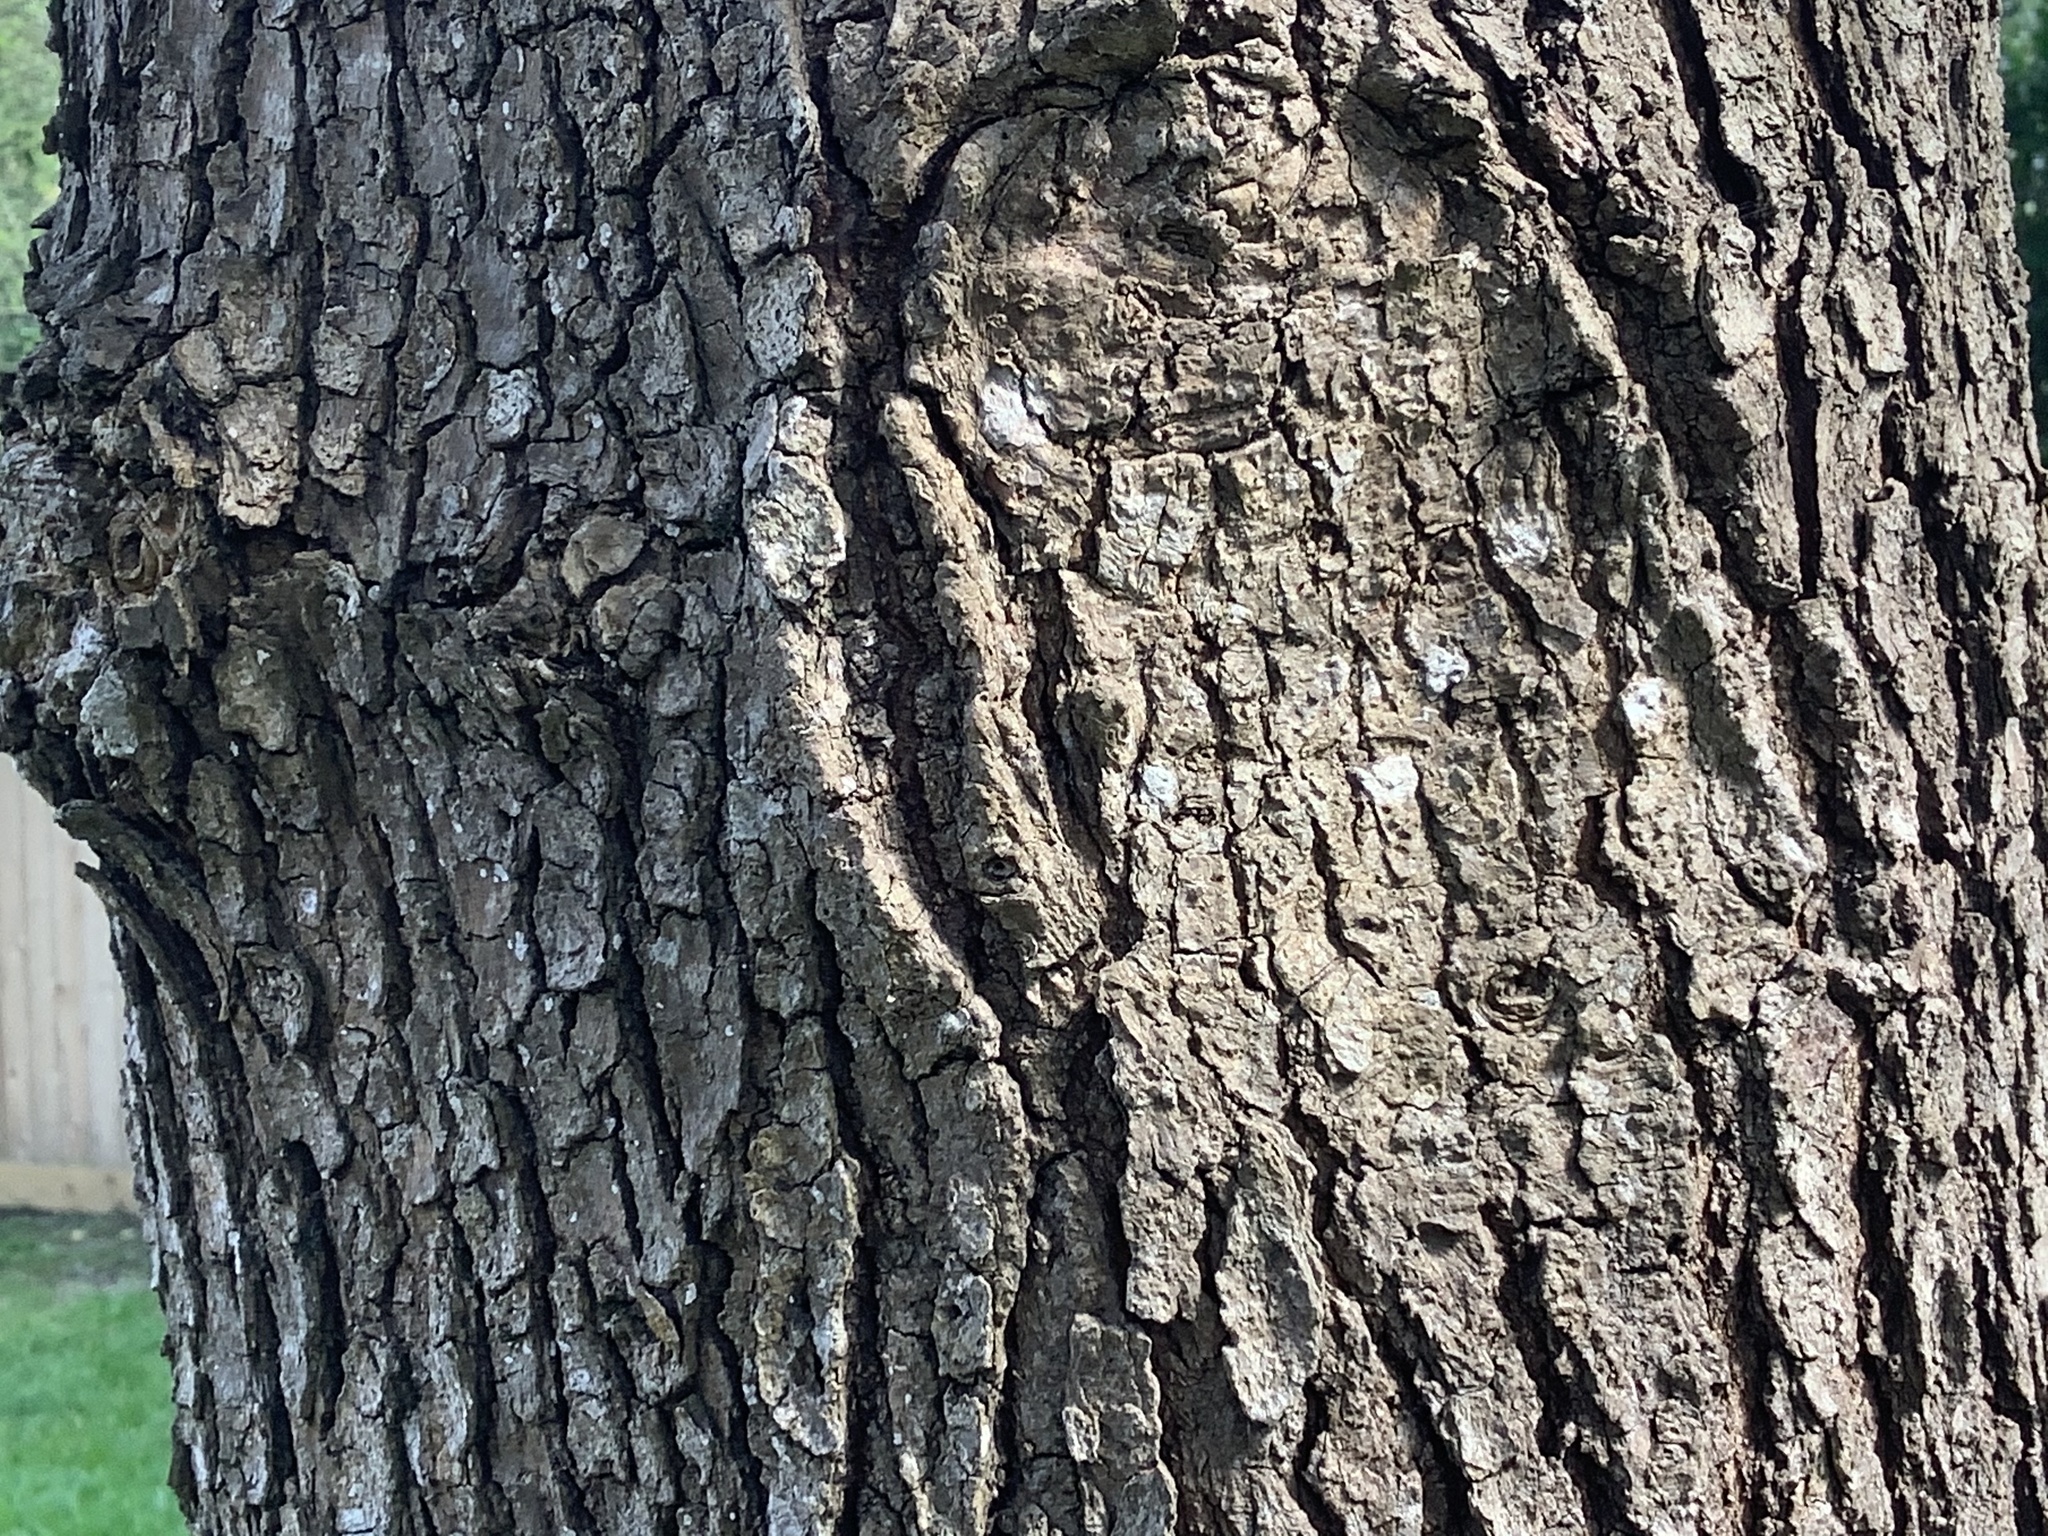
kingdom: Plantae
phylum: Tracheophyta
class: Magnoliopsida
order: Saxifragales
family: Altingiaceae
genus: Liquidambar
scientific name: Liquidambar styraciflua
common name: Sweet gum
